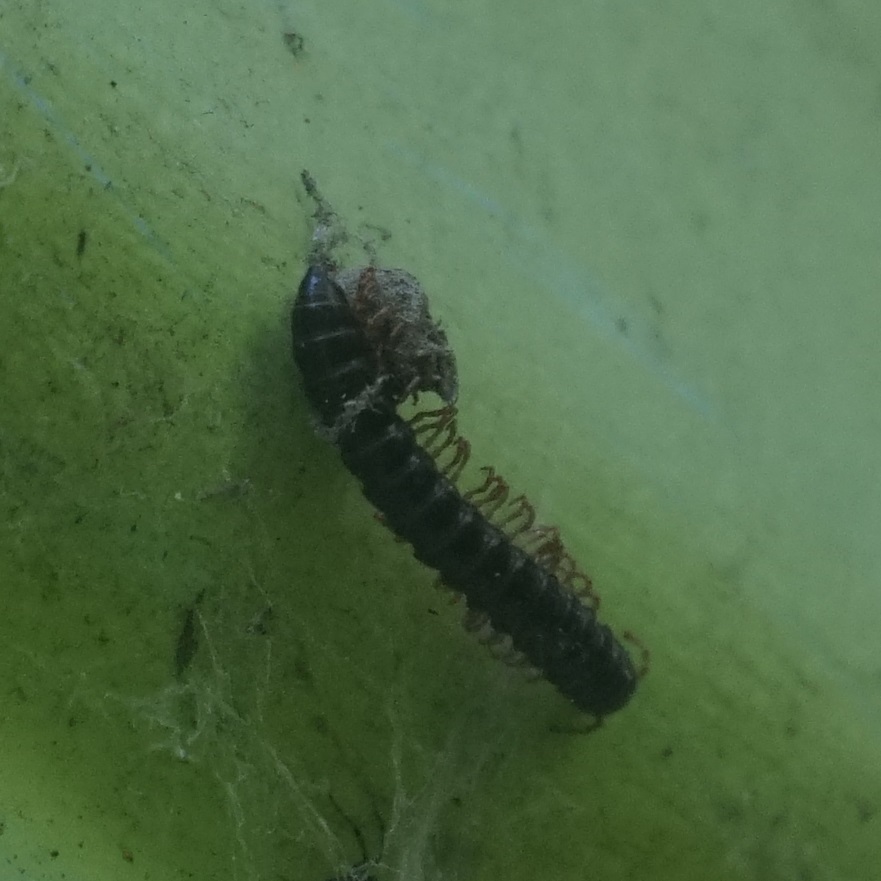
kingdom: Animalia
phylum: Arthropoda
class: Diplopoda
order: Polydesmida
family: Paradoxosomatidae
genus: Heterocladosoma
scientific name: Heterocladosoma
